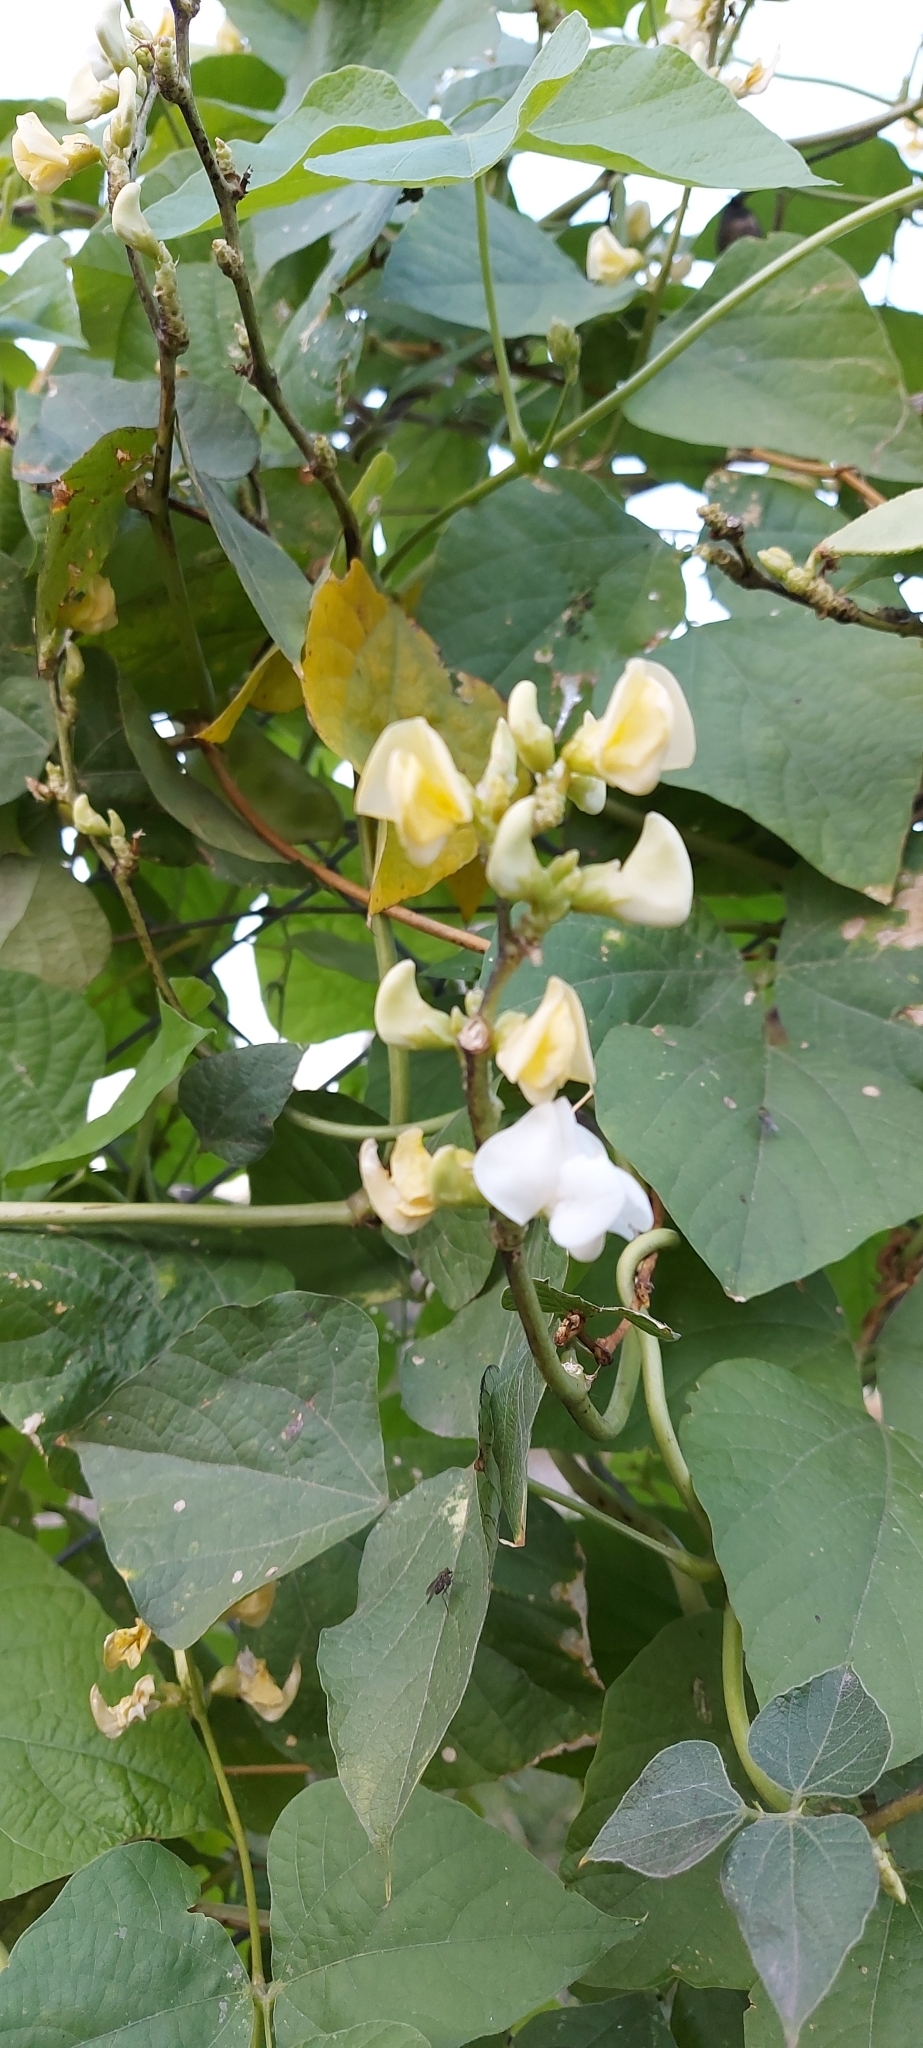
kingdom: Plantae
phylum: Tracheophyta
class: Magnoliopsida
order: Fabales
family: Fabaceae
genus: Lablab
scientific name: Lablab purpureus
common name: Lablab-bean
